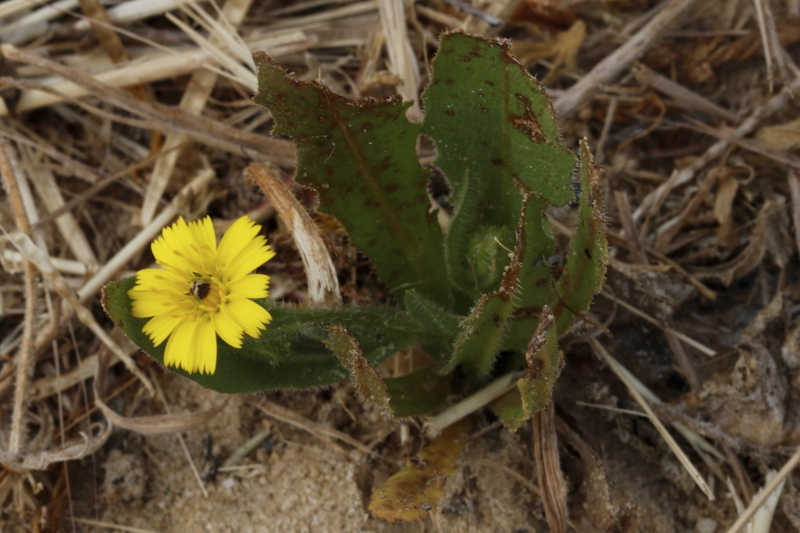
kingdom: Plantae
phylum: Tracheophyta
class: Magnoliopsida
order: Asterales
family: Asteraceae
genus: Hedypnois
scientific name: Hedypnois rhagadioloides
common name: Cretan weed
